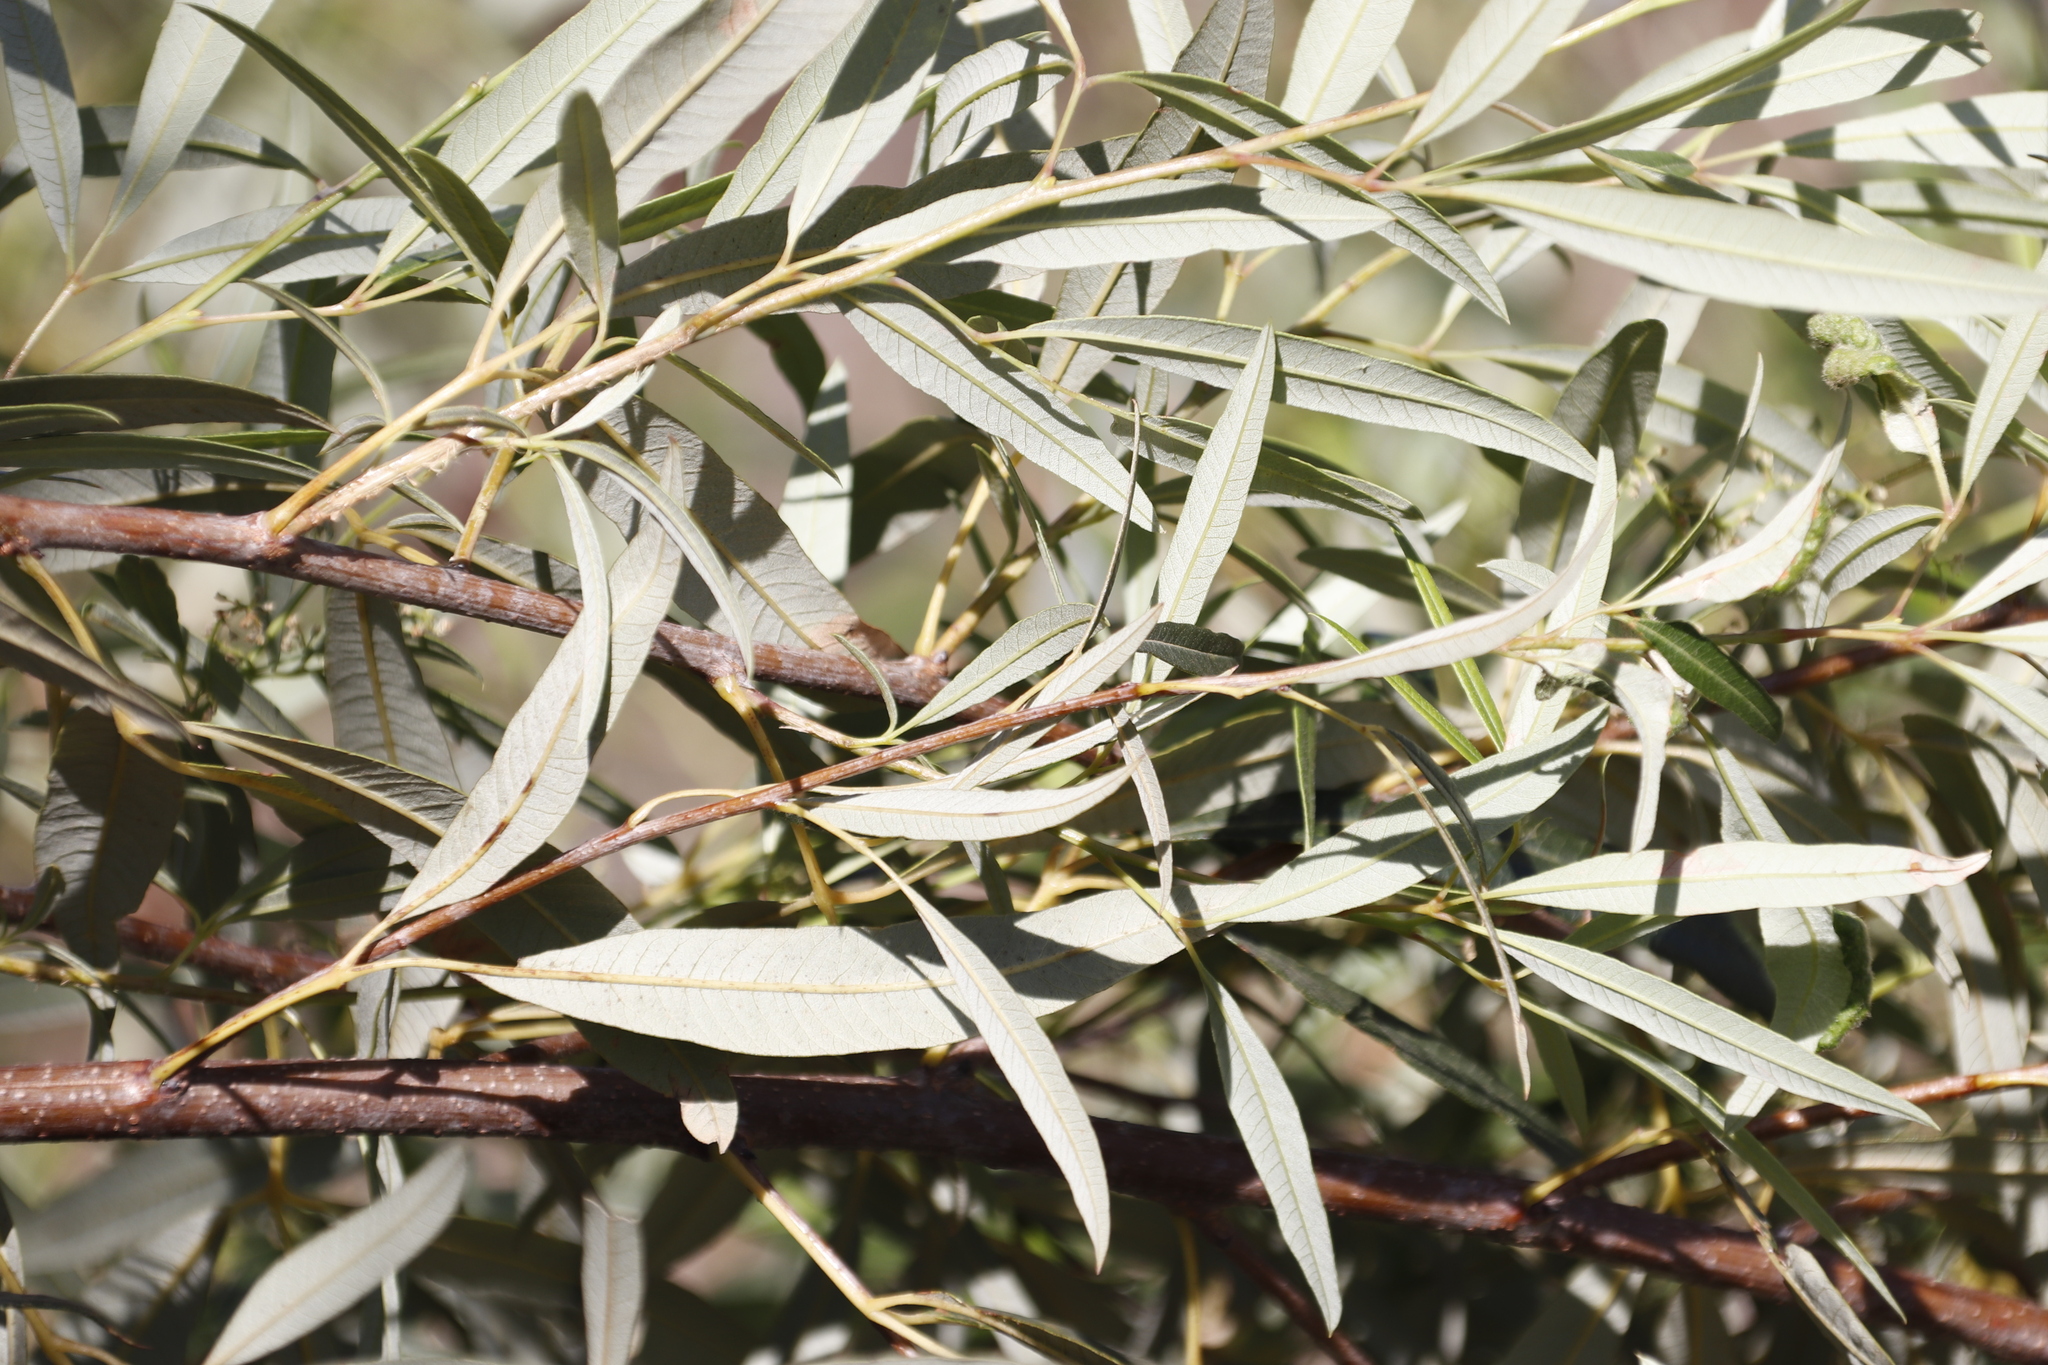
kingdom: Plantae
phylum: Tracheophyta
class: Magnoliopsida
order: Sapindales
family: Anacardiaceae
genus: Searsia
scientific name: Searsia angustifolia
